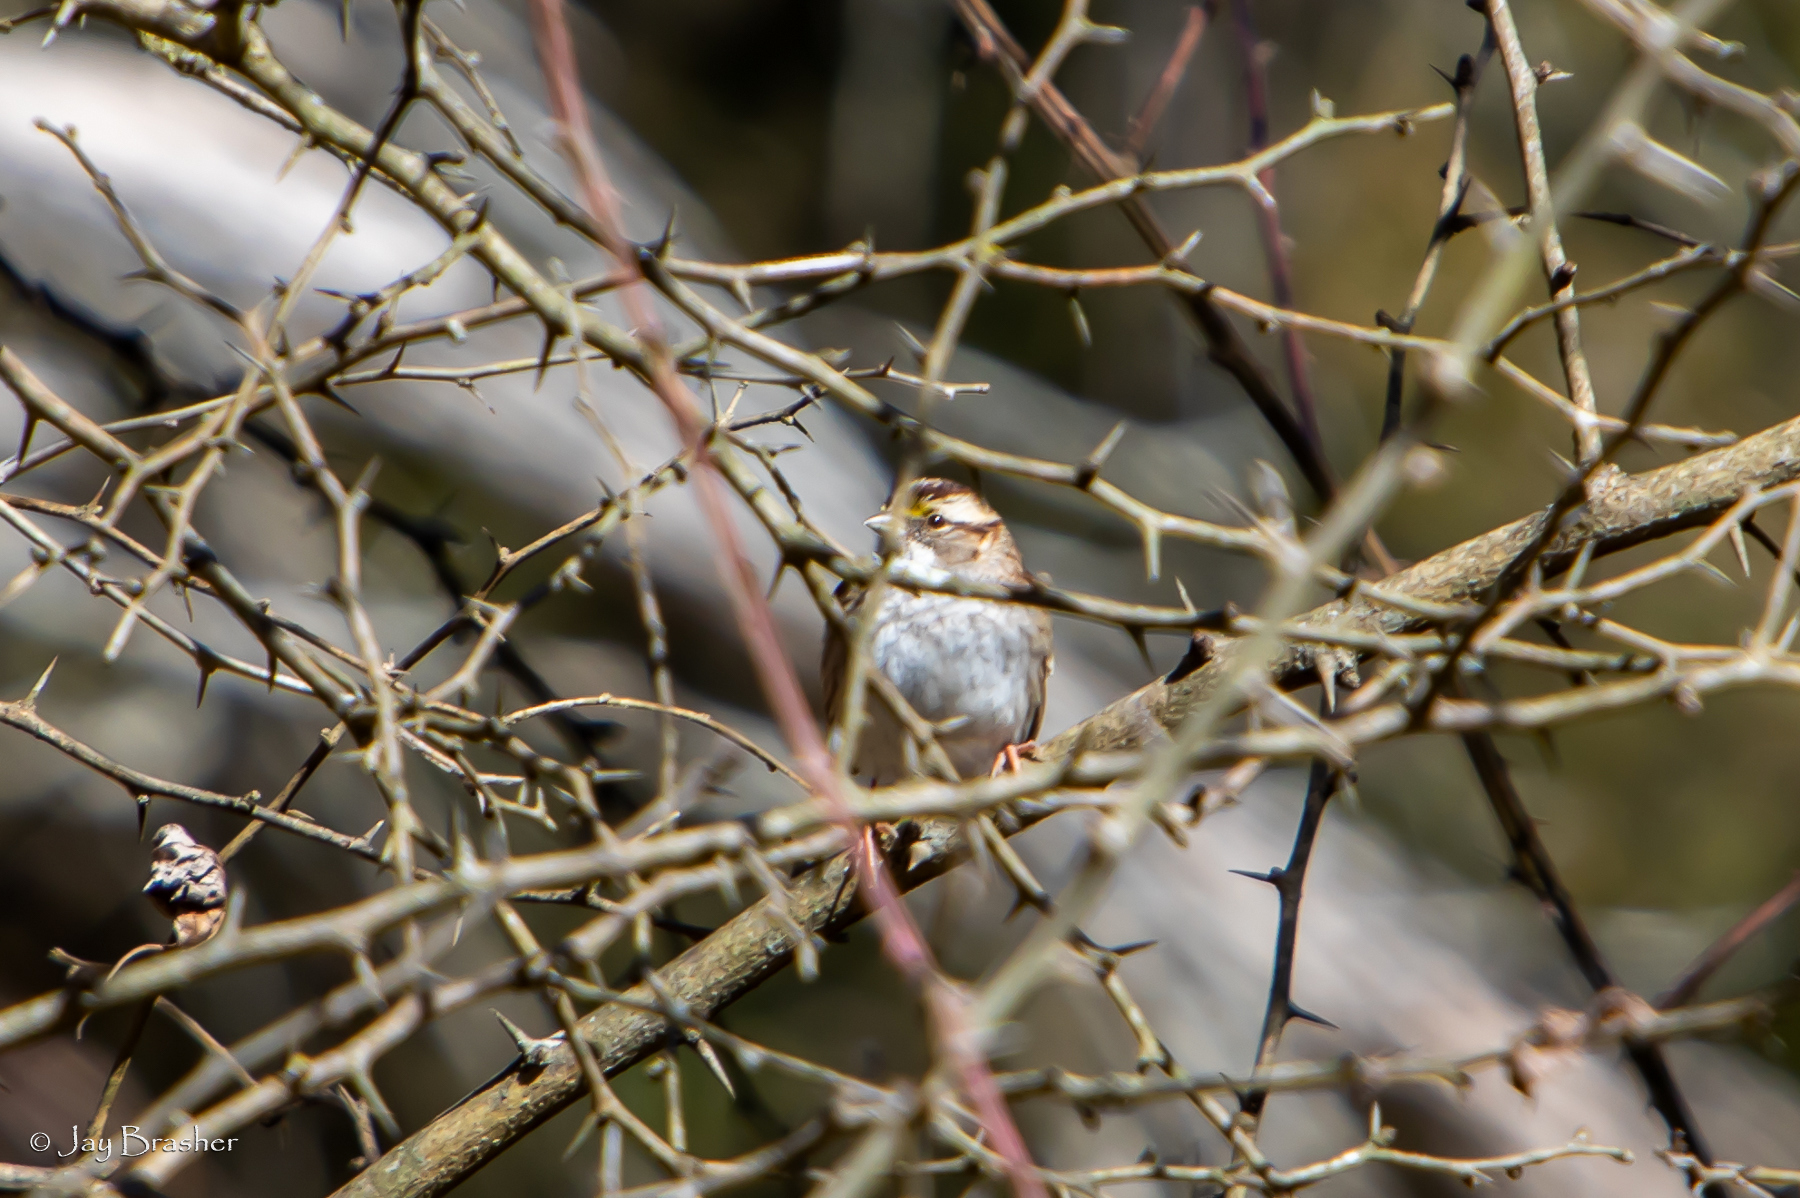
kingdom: Animalia
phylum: Chordata
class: Aves
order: Passeriformes
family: Passerellidae
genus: Zonotrichia
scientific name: Zonotrichia albicollis
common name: White-throated sparrow
